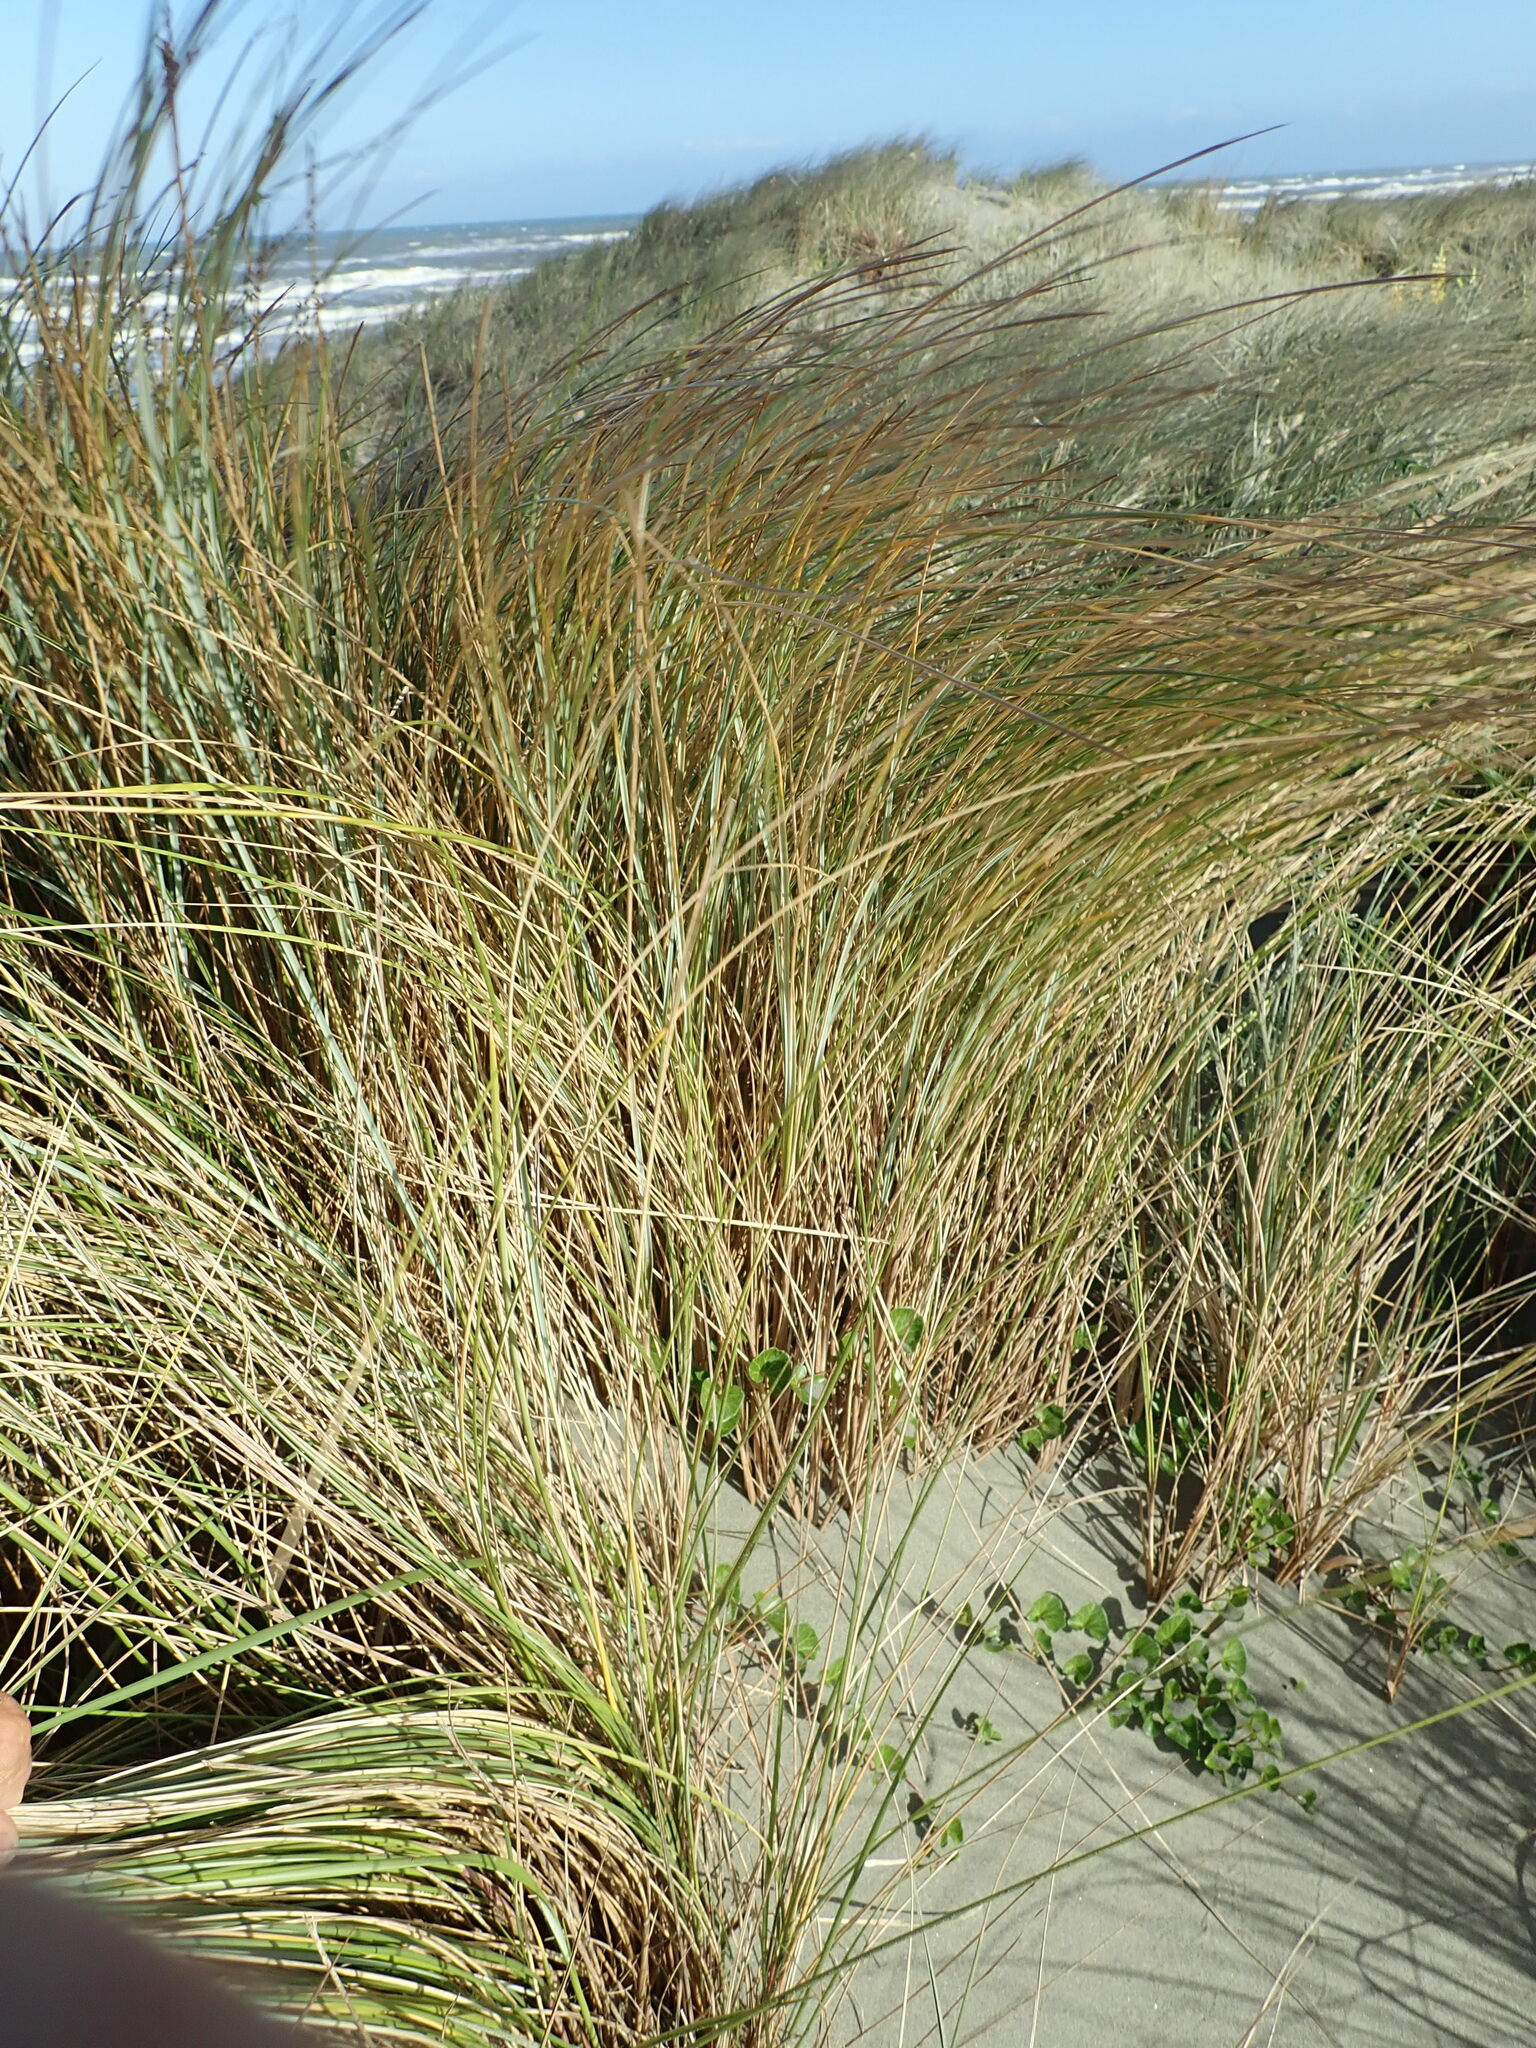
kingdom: Plantae
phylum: Tracheophyta
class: Liliopsida
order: Poales
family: Poaceae
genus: Calamagrostis
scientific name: Calamagrostis arenaria
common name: European beachgrass
